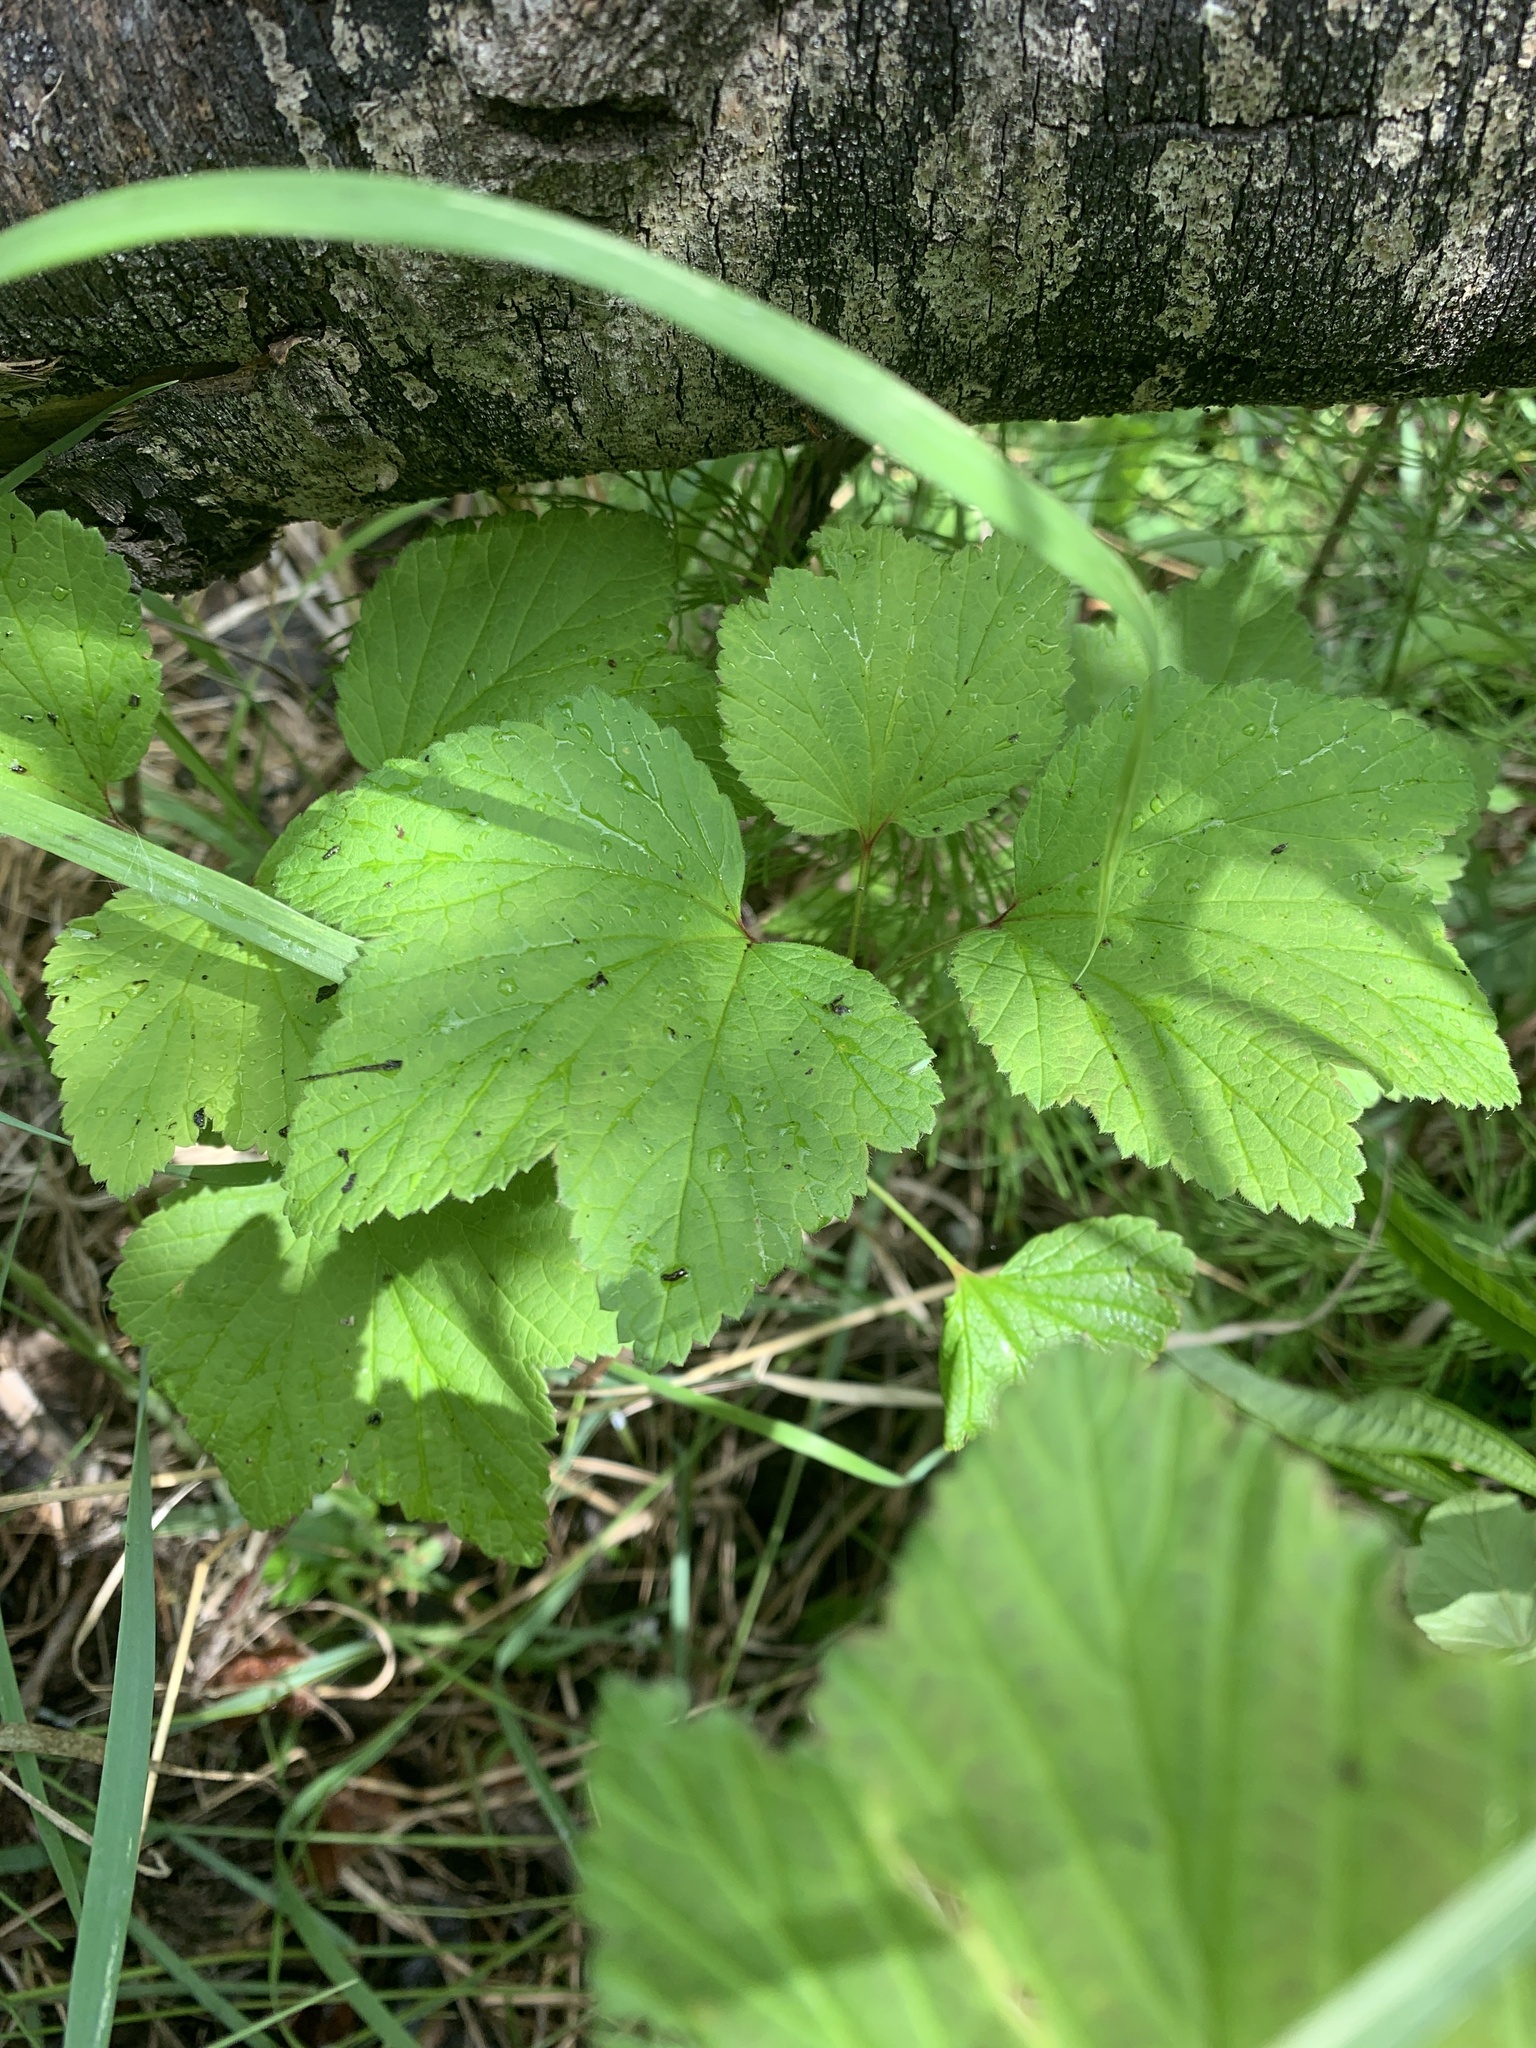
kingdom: Plantae
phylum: Tracheophyta
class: Magnoliopsida
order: Saxifragales
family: Grossulariaceae
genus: Ribes
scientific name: Ribes triste
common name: Swamp red currant
